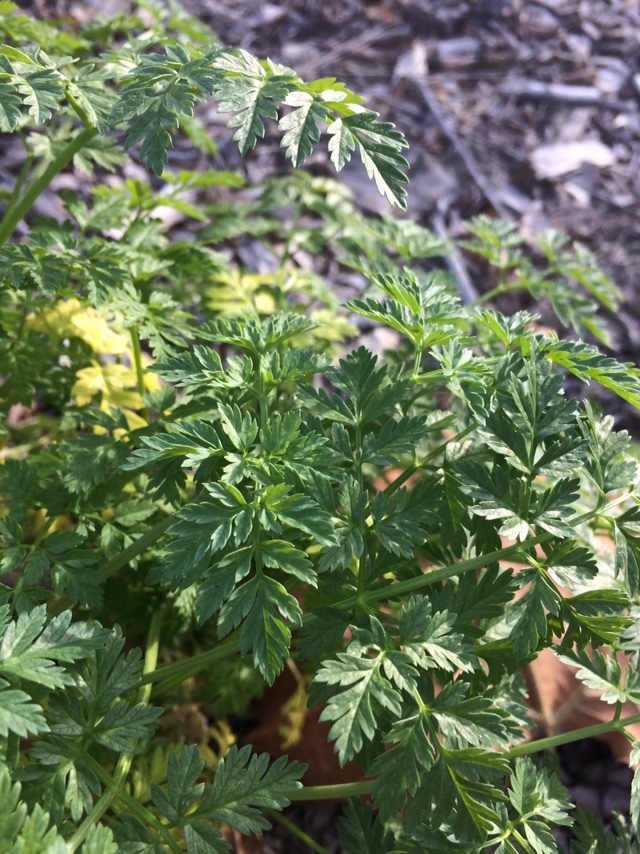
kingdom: Plantae
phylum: Tracheophyta
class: Magnoliopsida
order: Apiales
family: Apiaceae
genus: Conium
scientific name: Conium maculatum
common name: Hemlock
